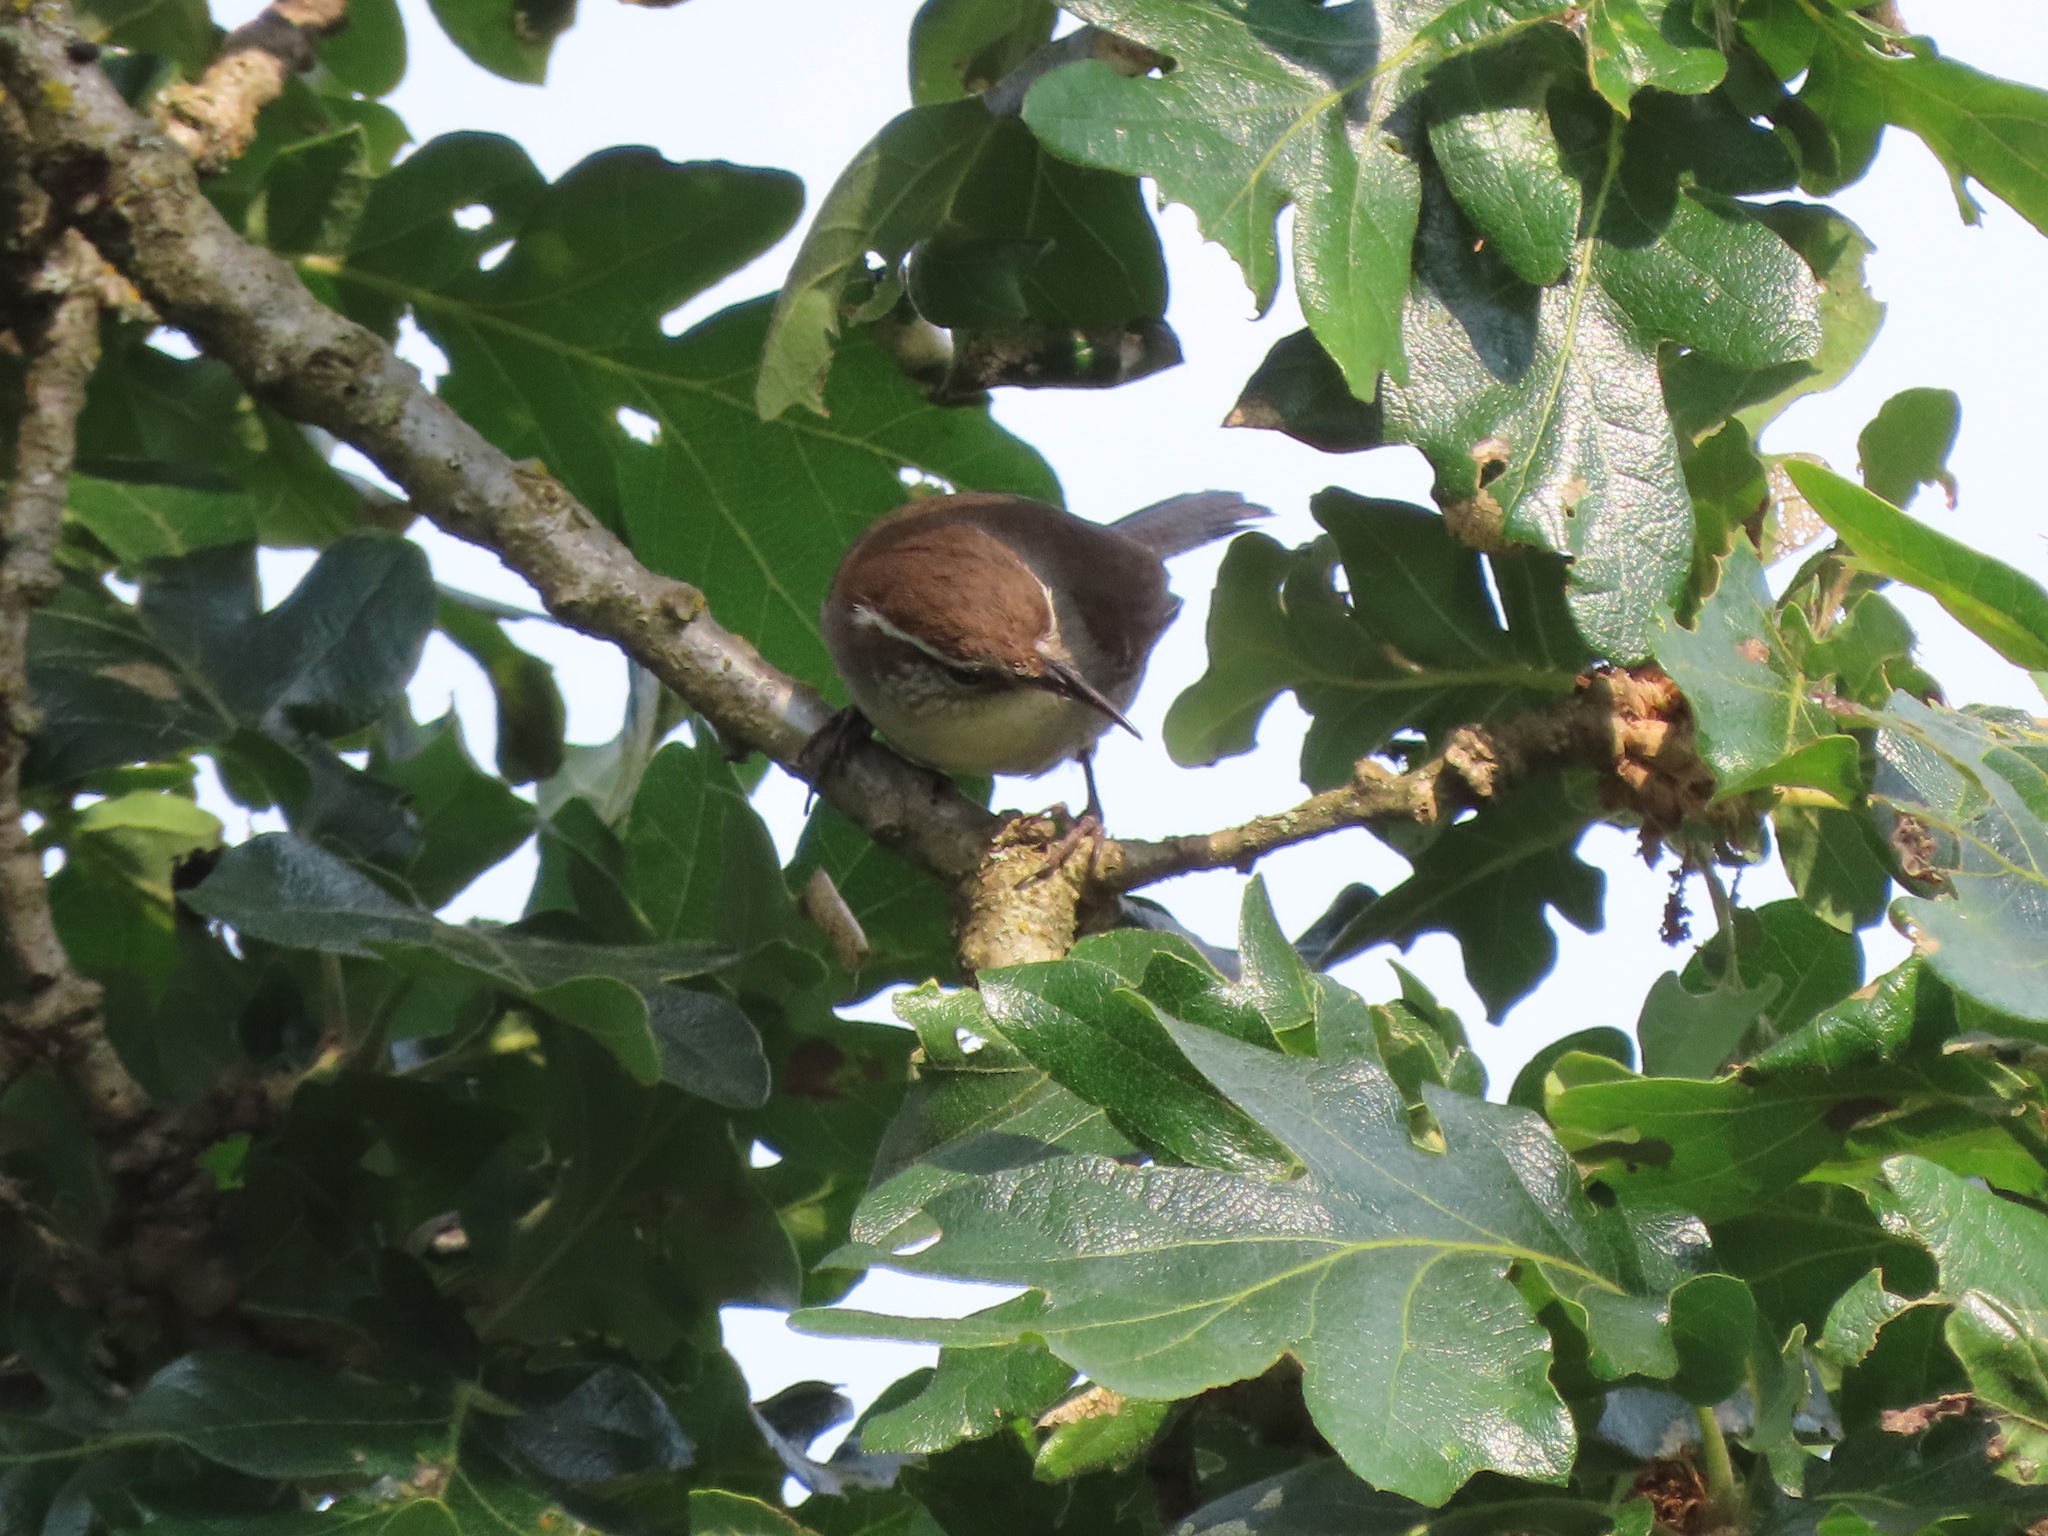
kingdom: Animalia
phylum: Chordata
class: Aves
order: Passeriformes
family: Troglodytidae
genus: Thryomanes
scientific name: Thryomanes bewickii
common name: Bewick's wren
